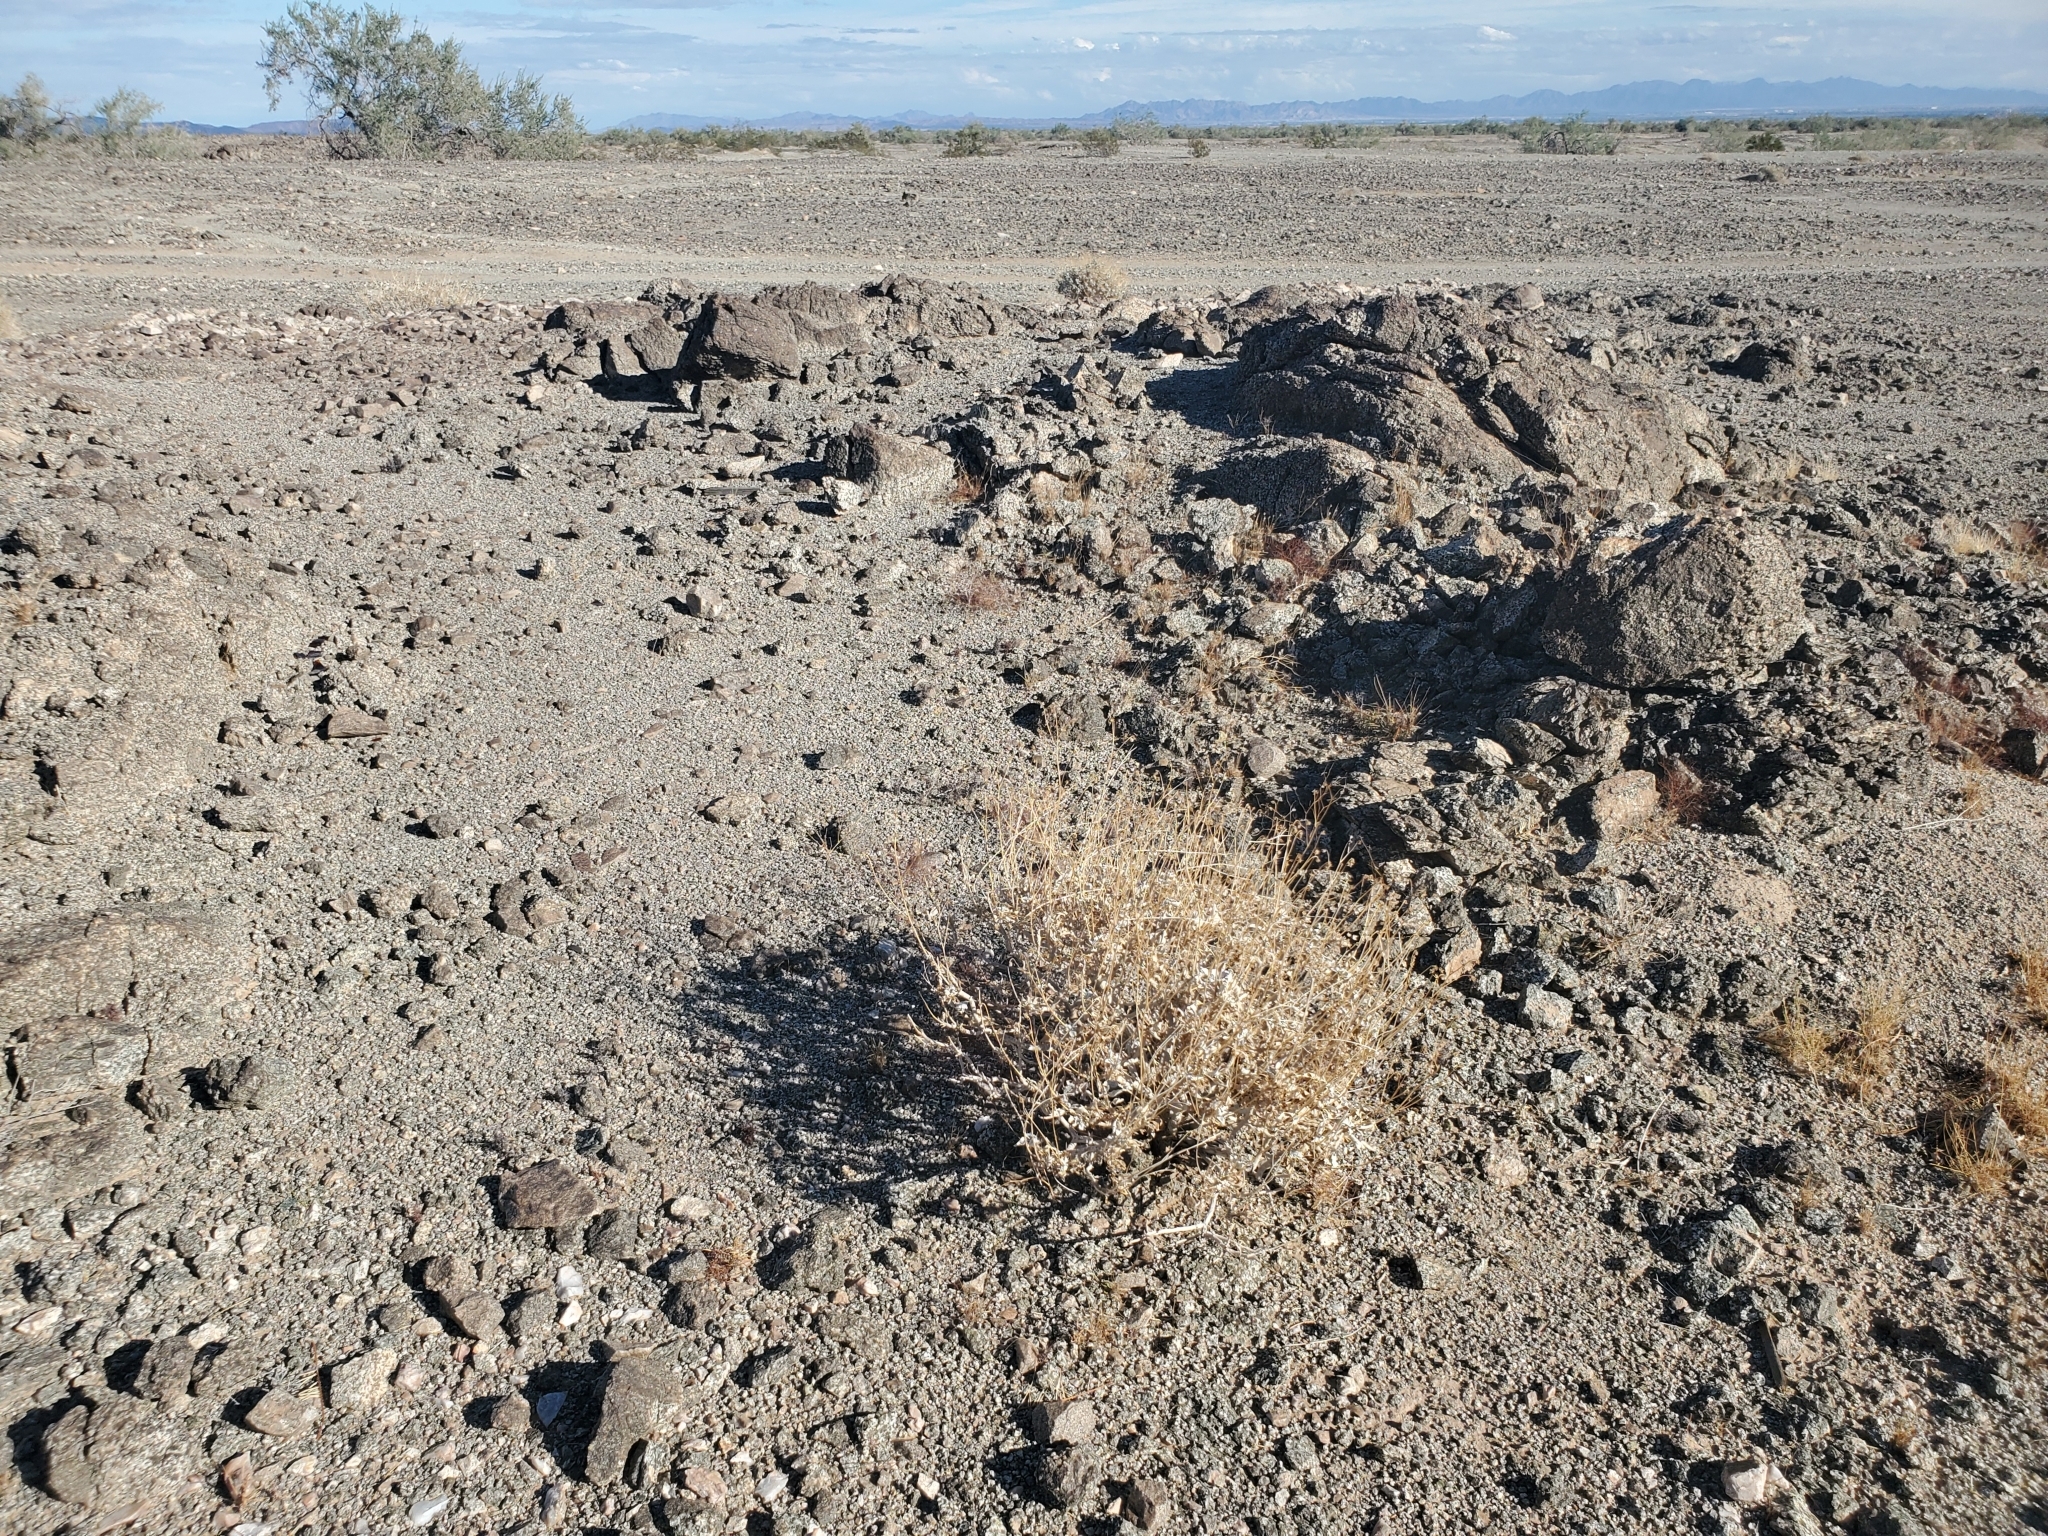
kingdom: Plantae
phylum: Tracheophyta
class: Magnoliopsida
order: Asterales
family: Asteraceae
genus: Encelia
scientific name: Encelia farinosa
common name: Brittlebush
